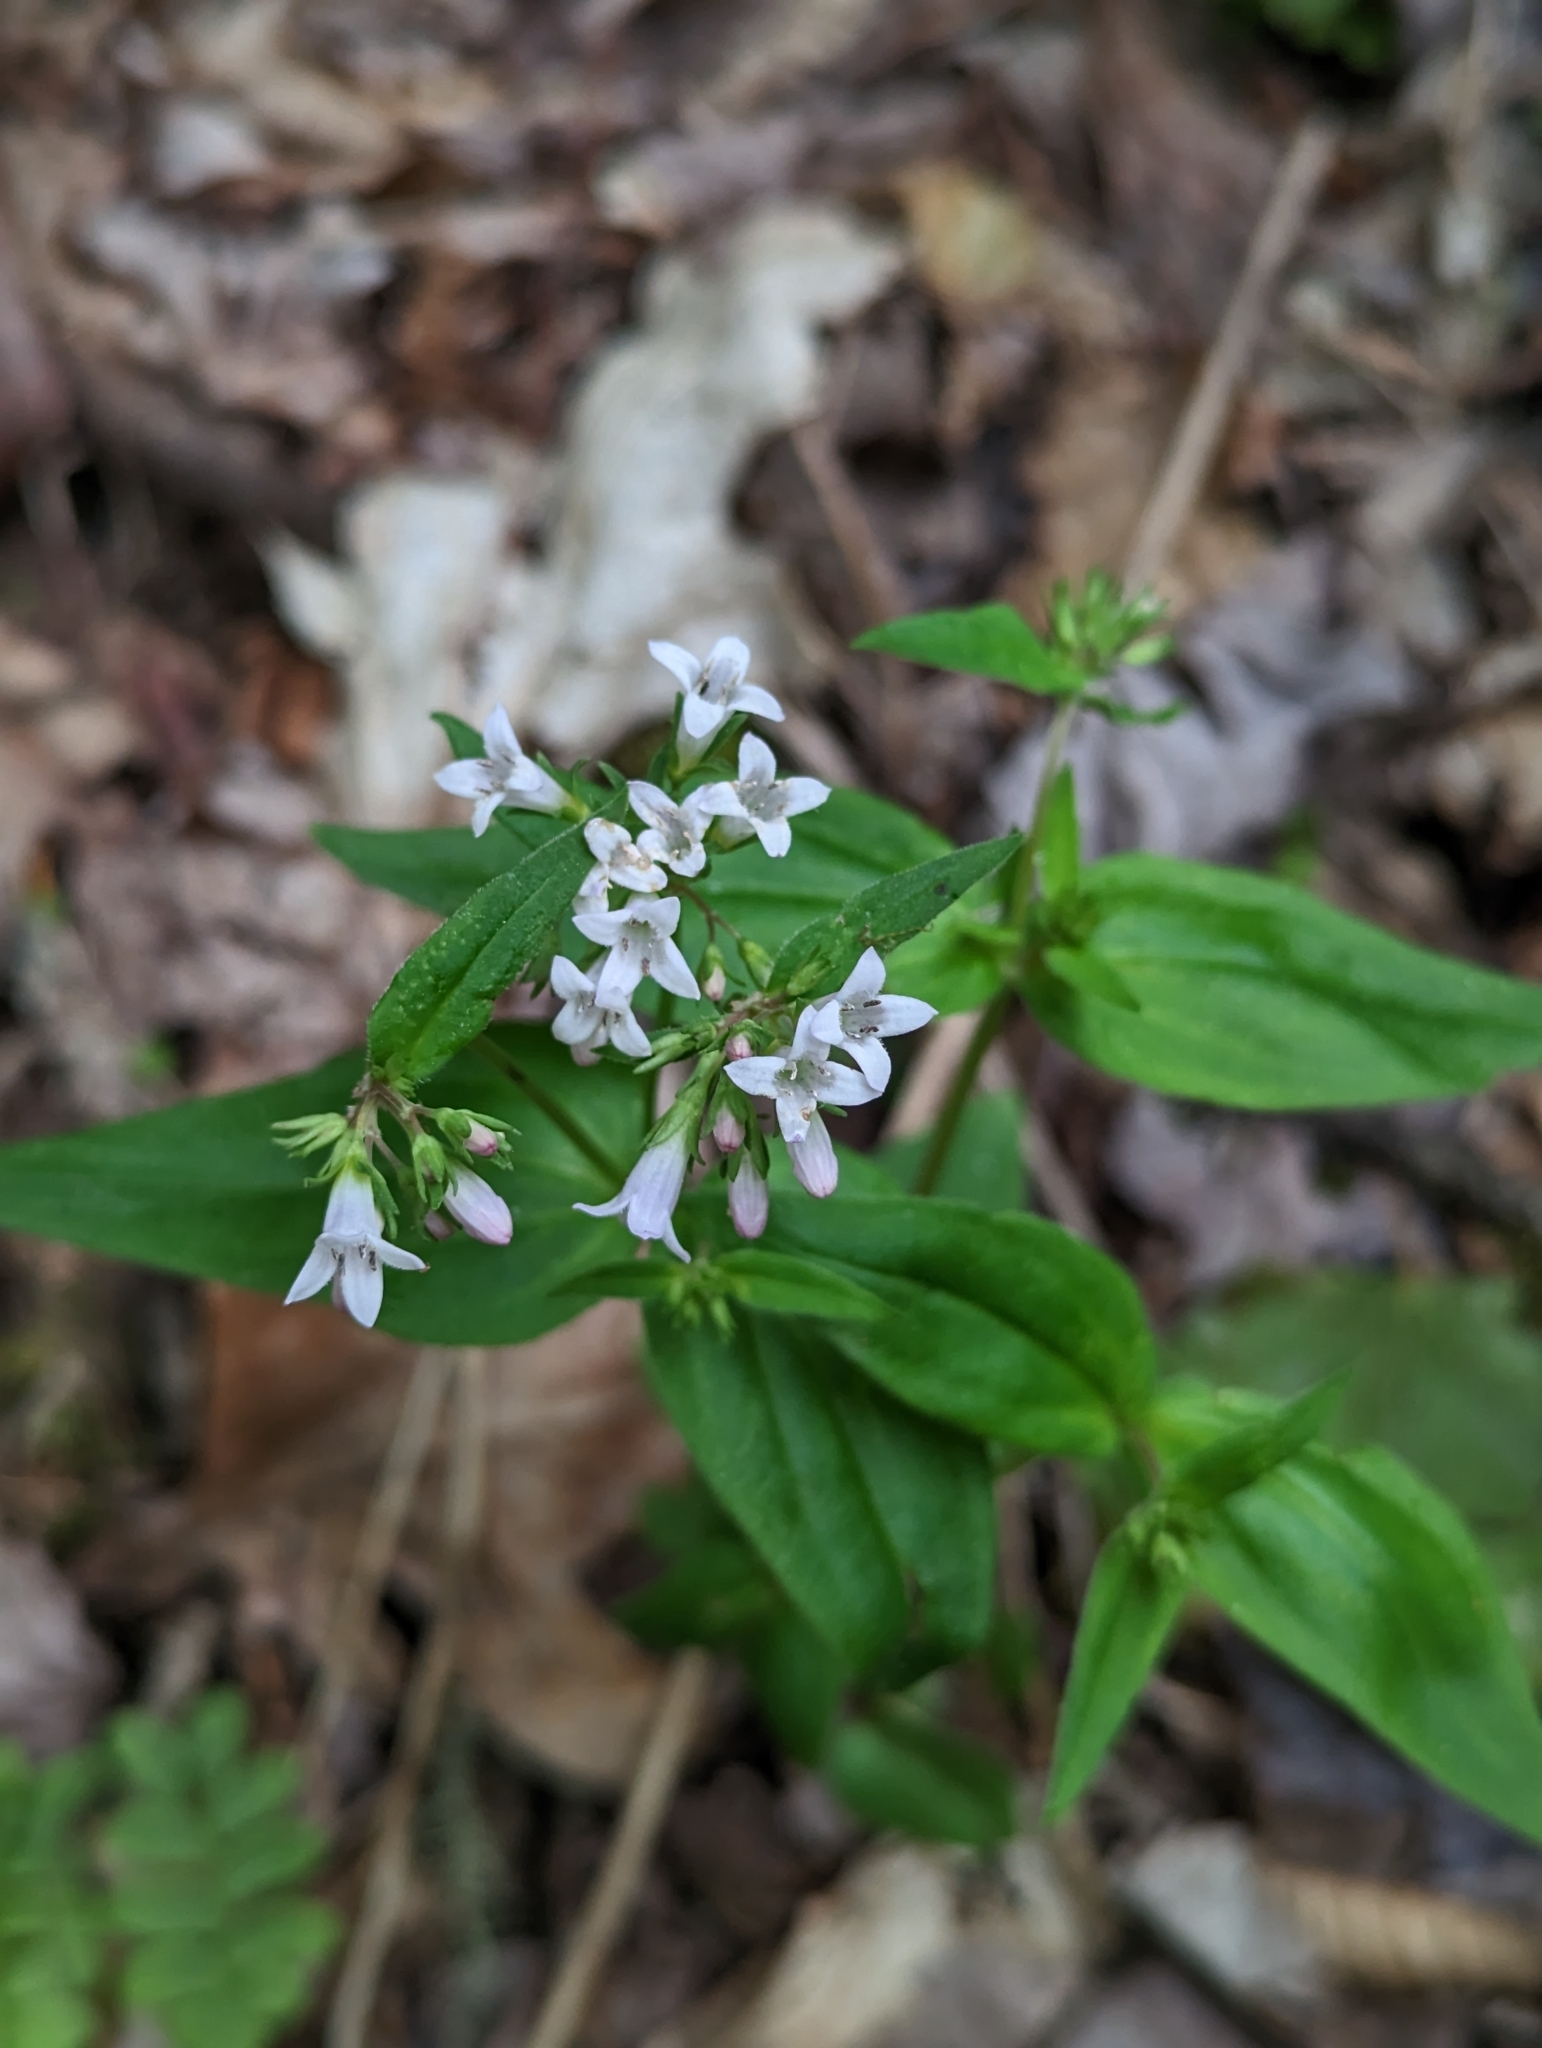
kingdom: Plantae
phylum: Tracheophyta
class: Magnoliopsida
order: Gentianales
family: Rubiaceae
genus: Houstonia
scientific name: Houstonia purpurea
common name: Summer bluet
